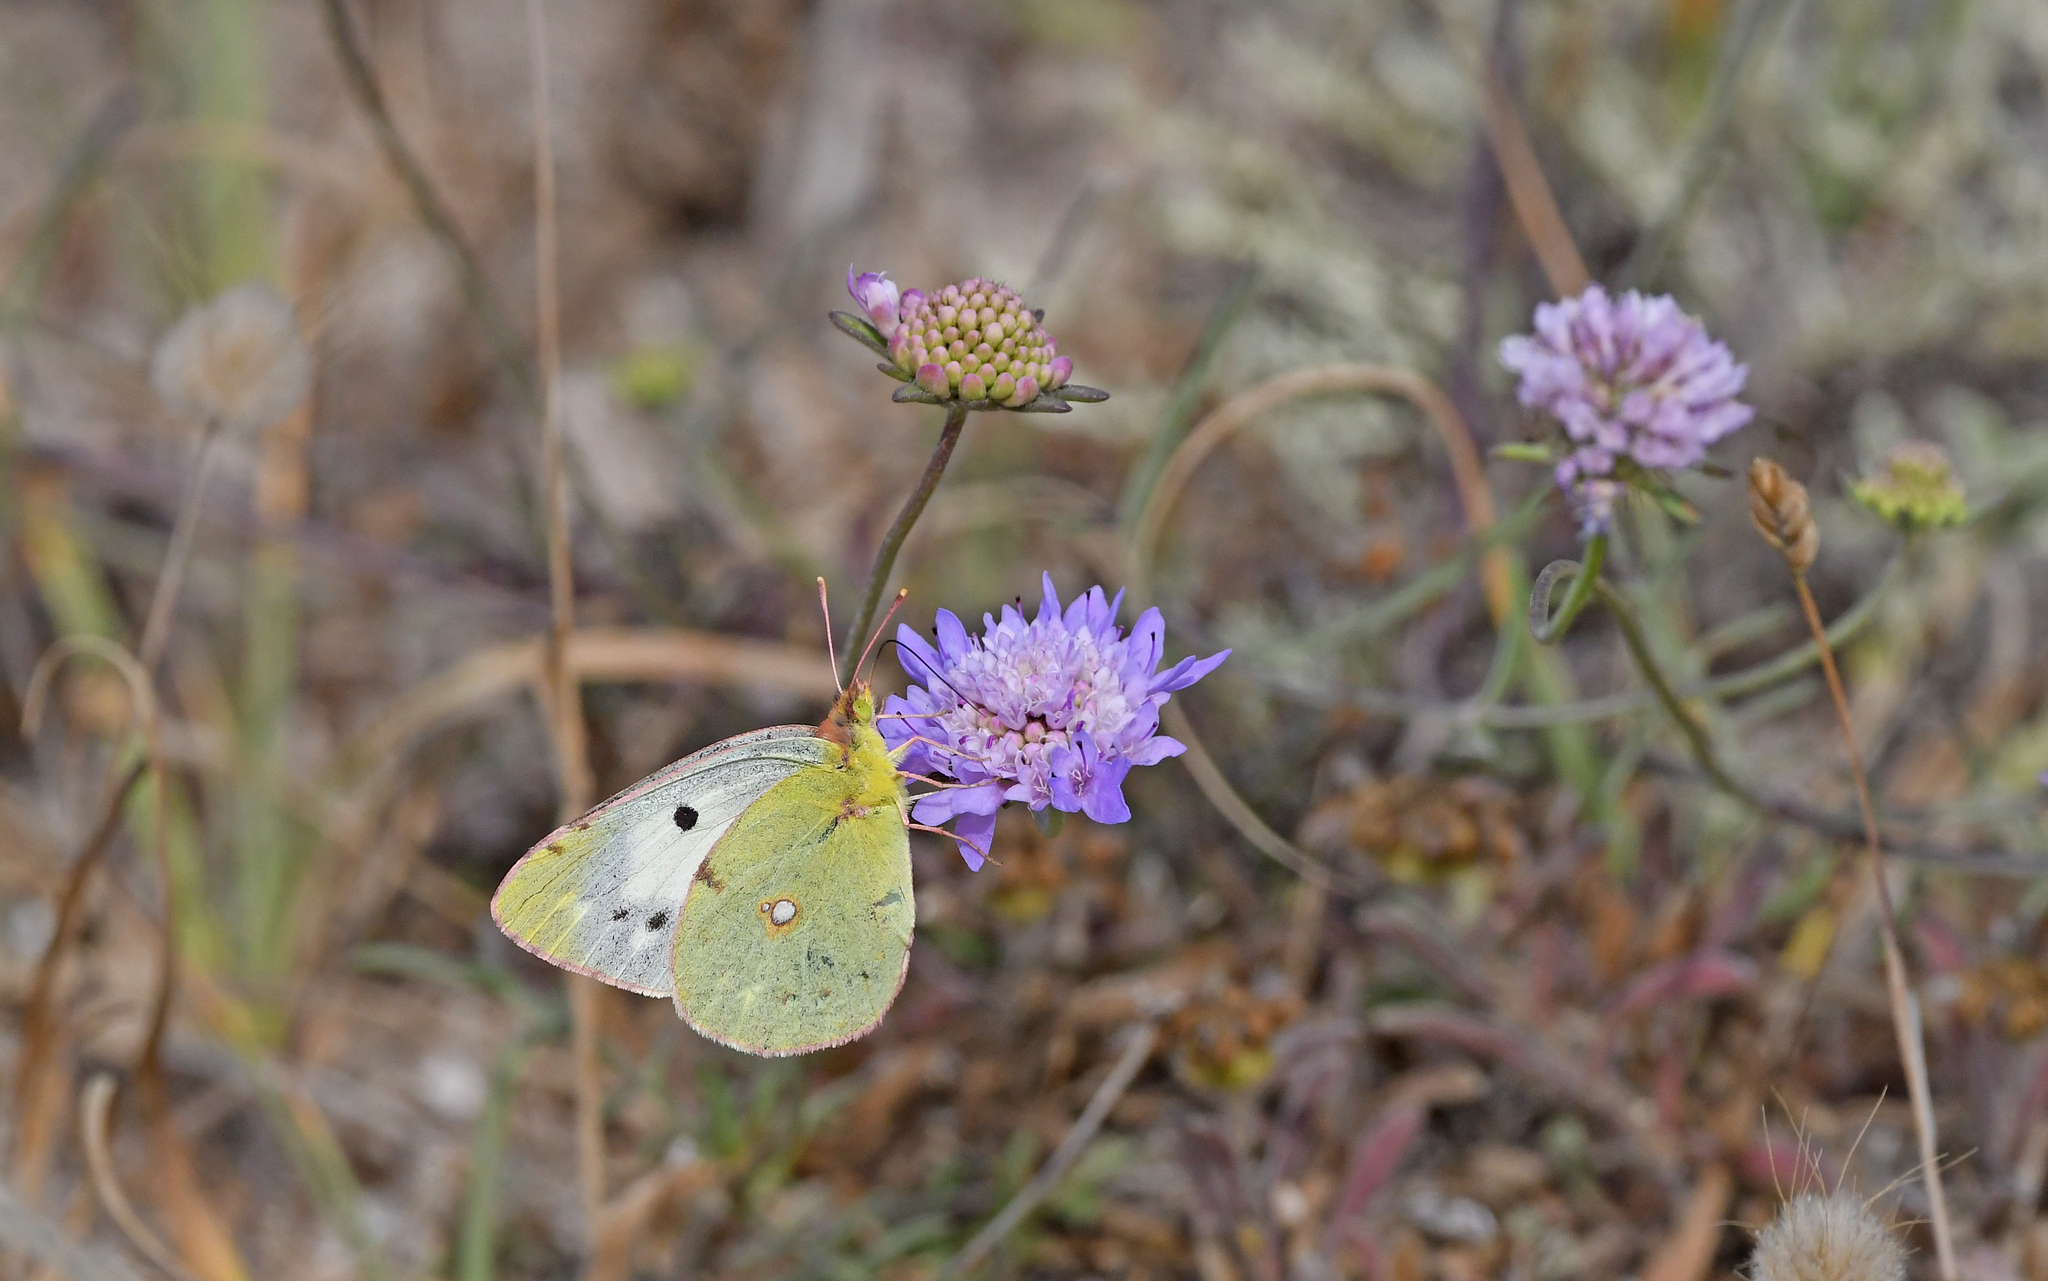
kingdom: Animalia
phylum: Arthropoda
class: Insecta
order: Lepidoptera
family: Pieridae
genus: Colias
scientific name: Colias croceus
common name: Clouded yellow
